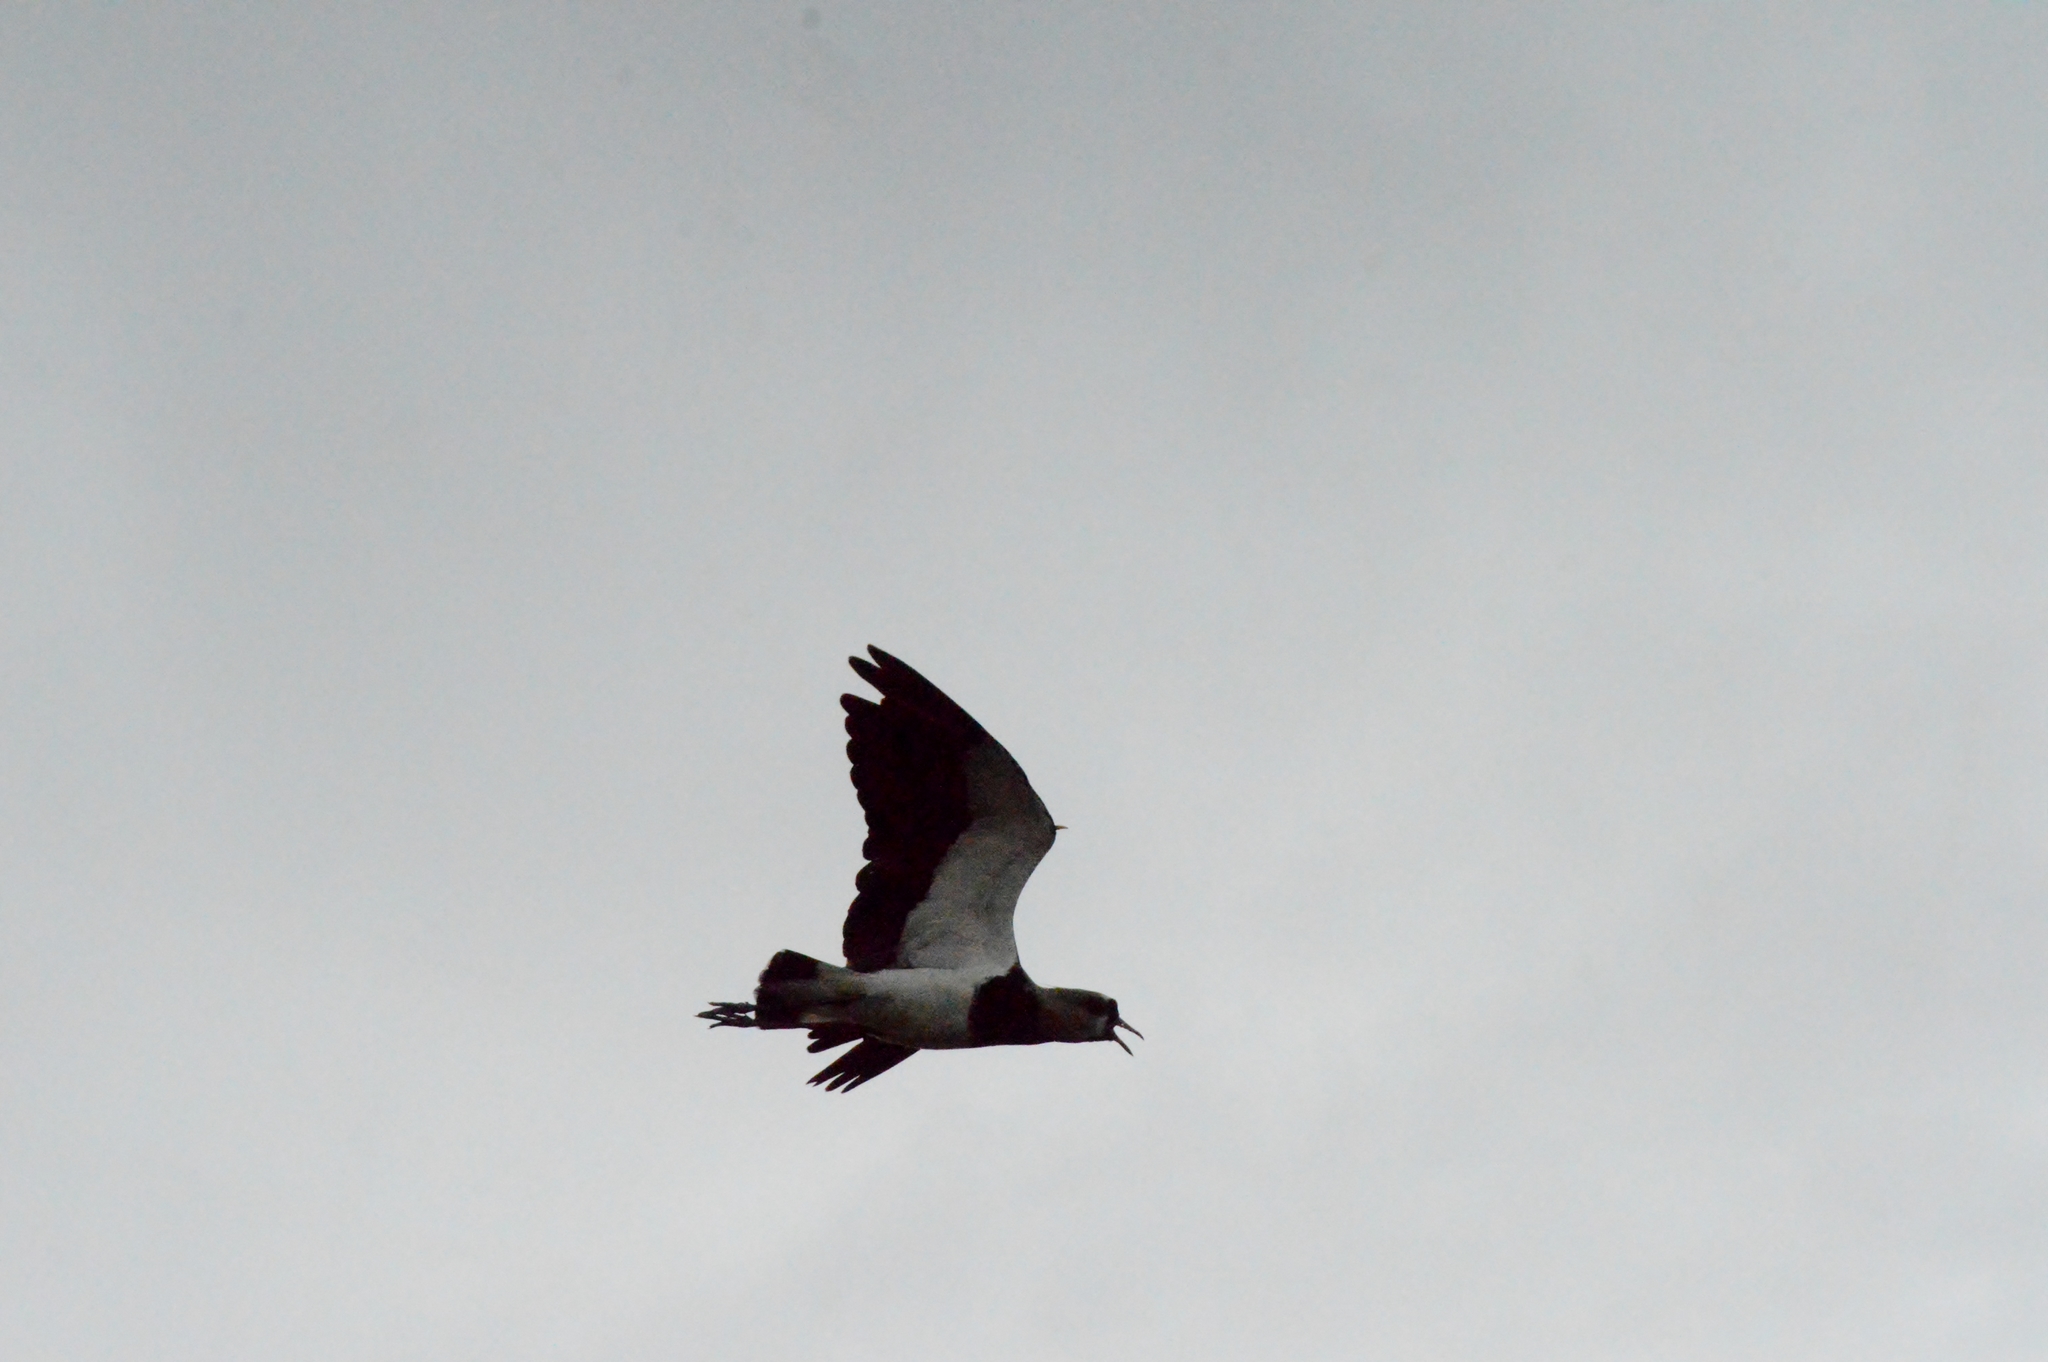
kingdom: Animalia
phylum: Chordata
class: Aves
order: Charadriiformes
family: Charadriidae
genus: Vanellus
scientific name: Vanellus chilensis
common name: Southern lapwing
